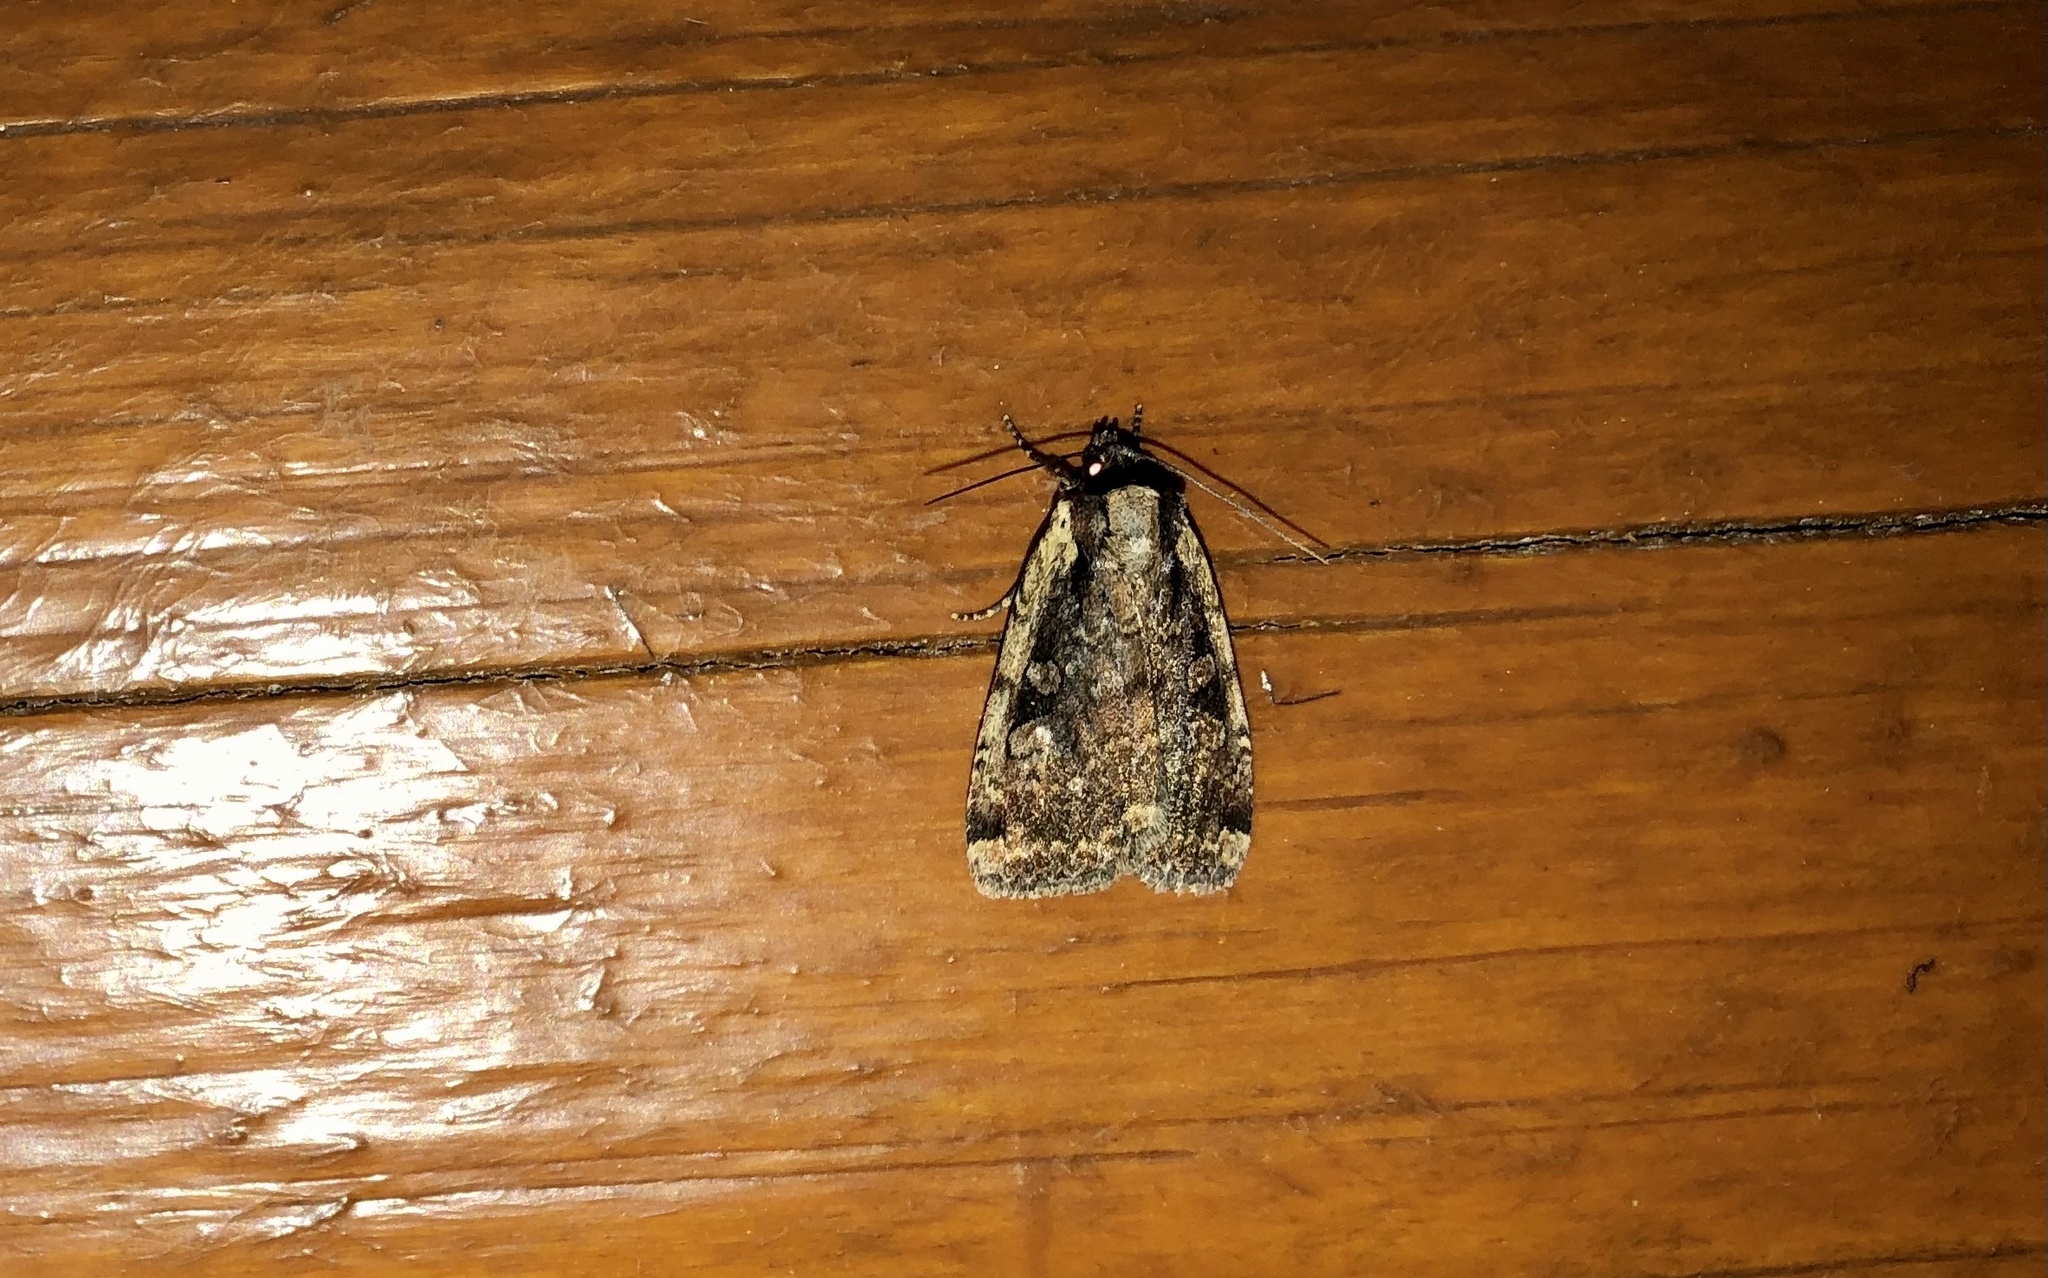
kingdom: Animalia
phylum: Arthropoda
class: Insecta
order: Lepidoptera
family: Noctuidae
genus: Eueretagrotis
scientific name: Eueretagrotis sigmoides
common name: Sigmoid dart
